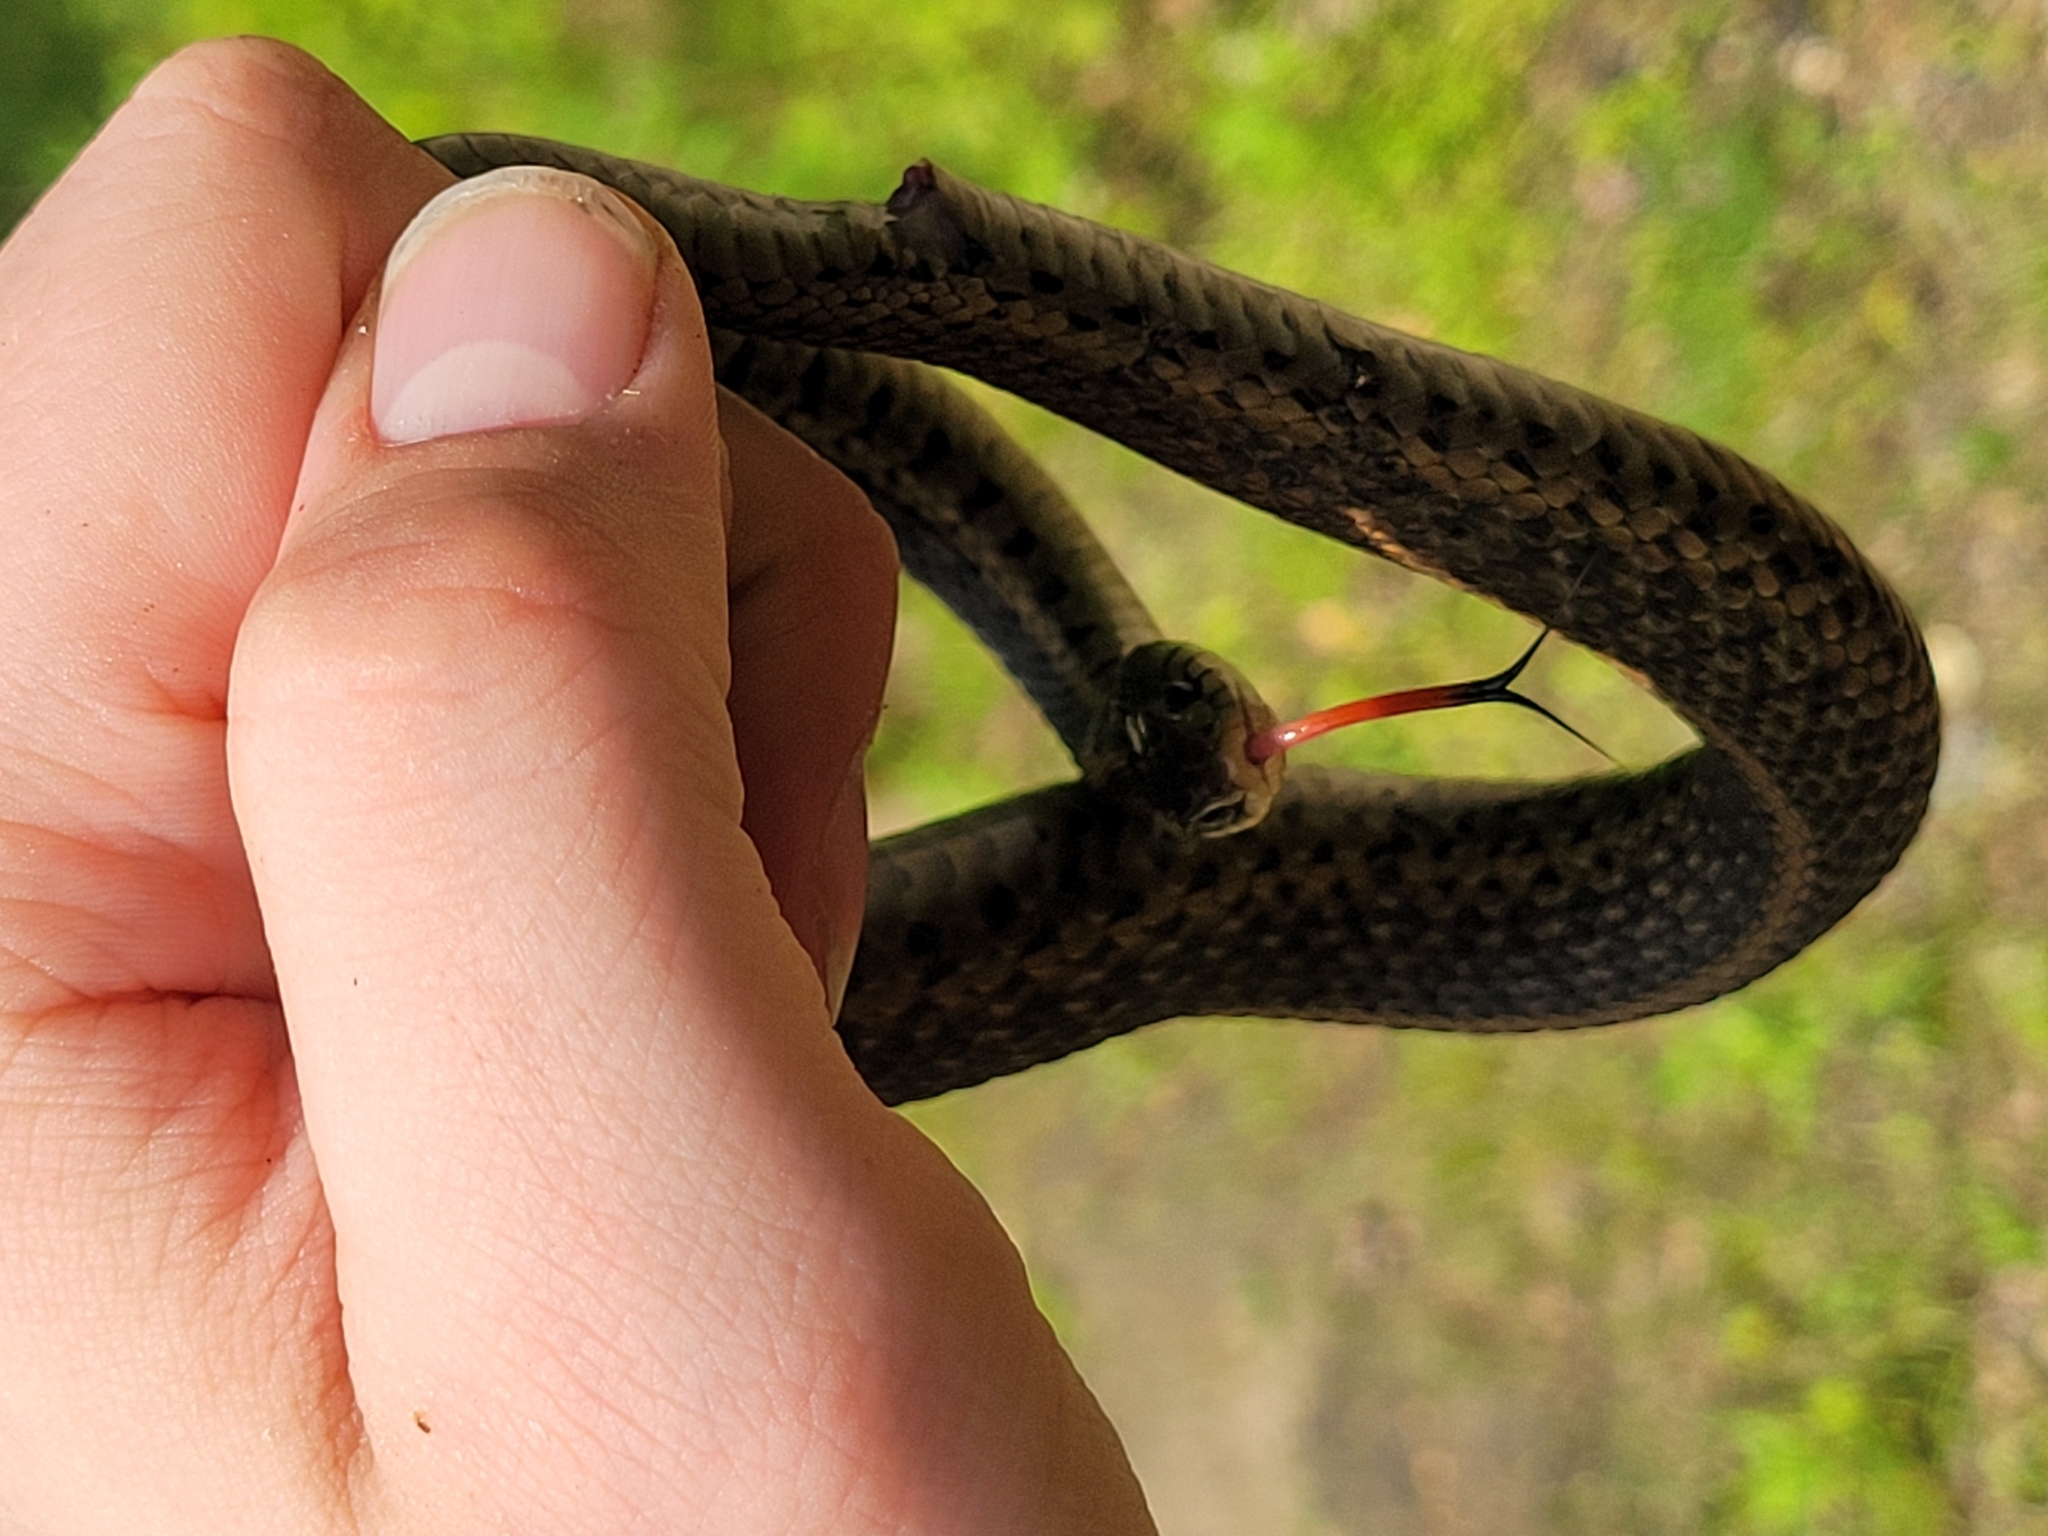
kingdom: Animalia
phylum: Chordata
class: Squamata
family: Colubridae
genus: Thamnophis
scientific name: Thamnophis sirtalis
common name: Common garter snake
